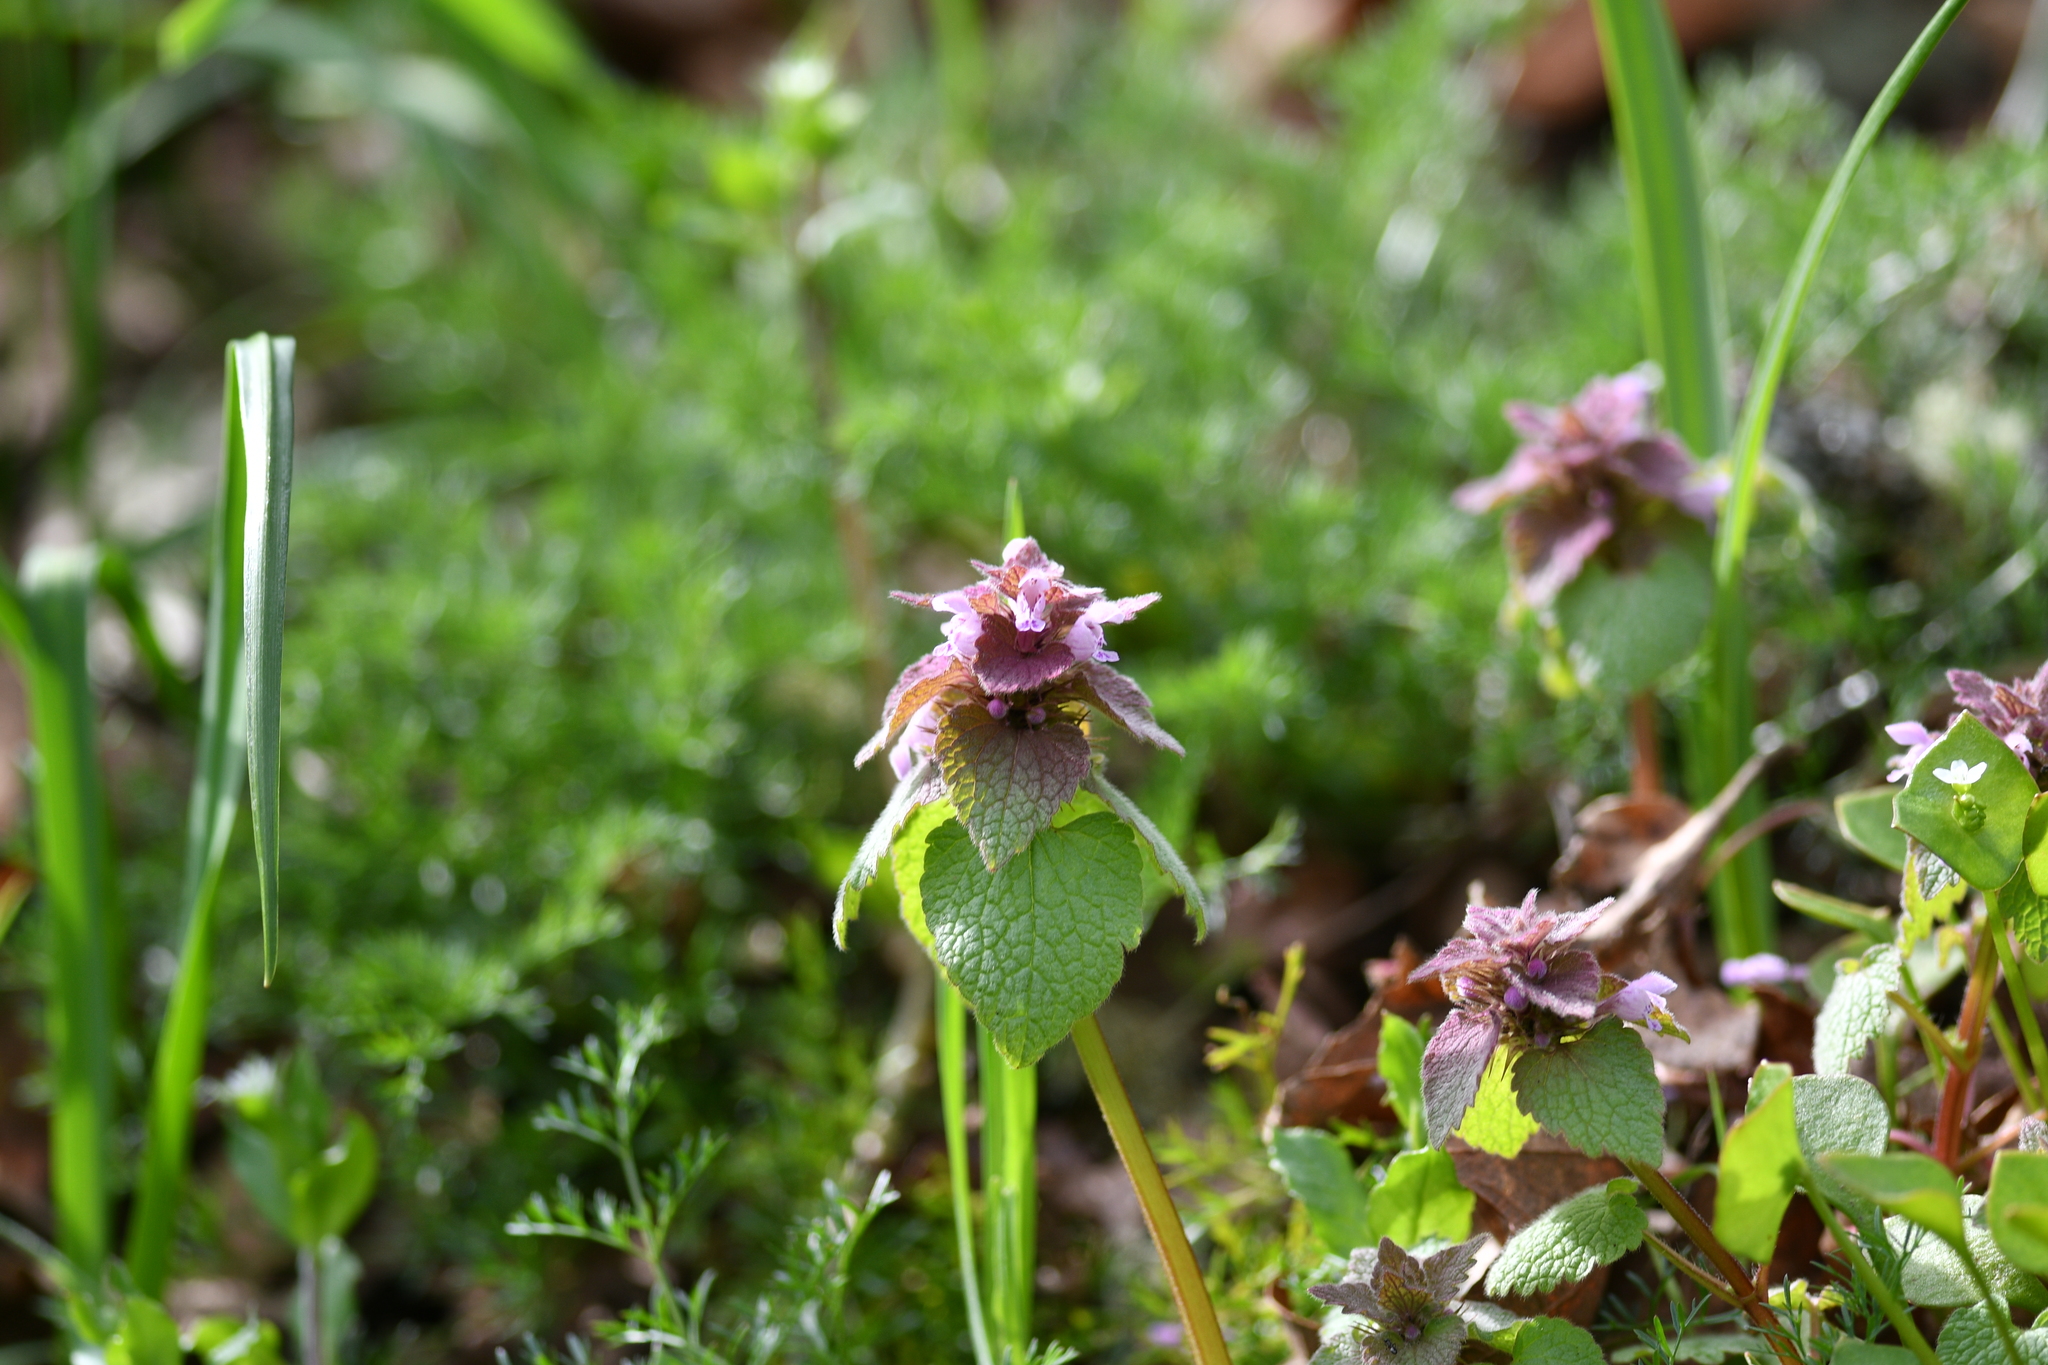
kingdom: Plantae
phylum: Tracheophyta
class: Magnoliopsida
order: Lamiales
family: Lamiaceae
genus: Lamium
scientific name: Lamium purpureum
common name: Red dead-nettle
